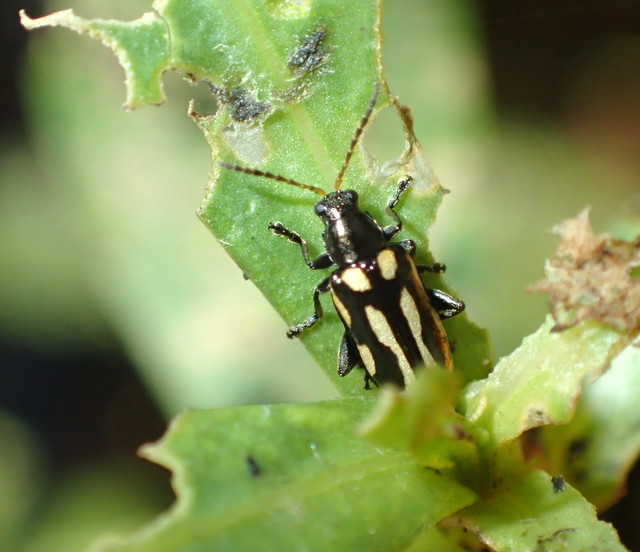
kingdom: Animalia
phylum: Arthropoda
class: Insecta
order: Coleoptera
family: Chrysomelidae
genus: Agasicles
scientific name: Agasicles hygrophila
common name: Alligatorweed flea beetle
